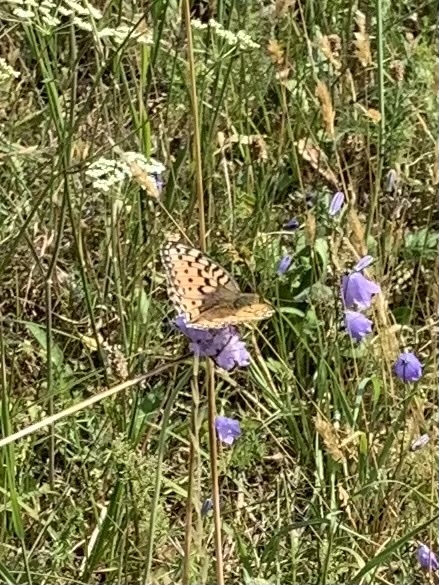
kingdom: Animalia
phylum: Arthropoda
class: Insecta
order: Lepidoptera
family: Nymphalidae
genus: Speyeria
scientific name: Speyeria aglaja
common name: Dark green fritillary
